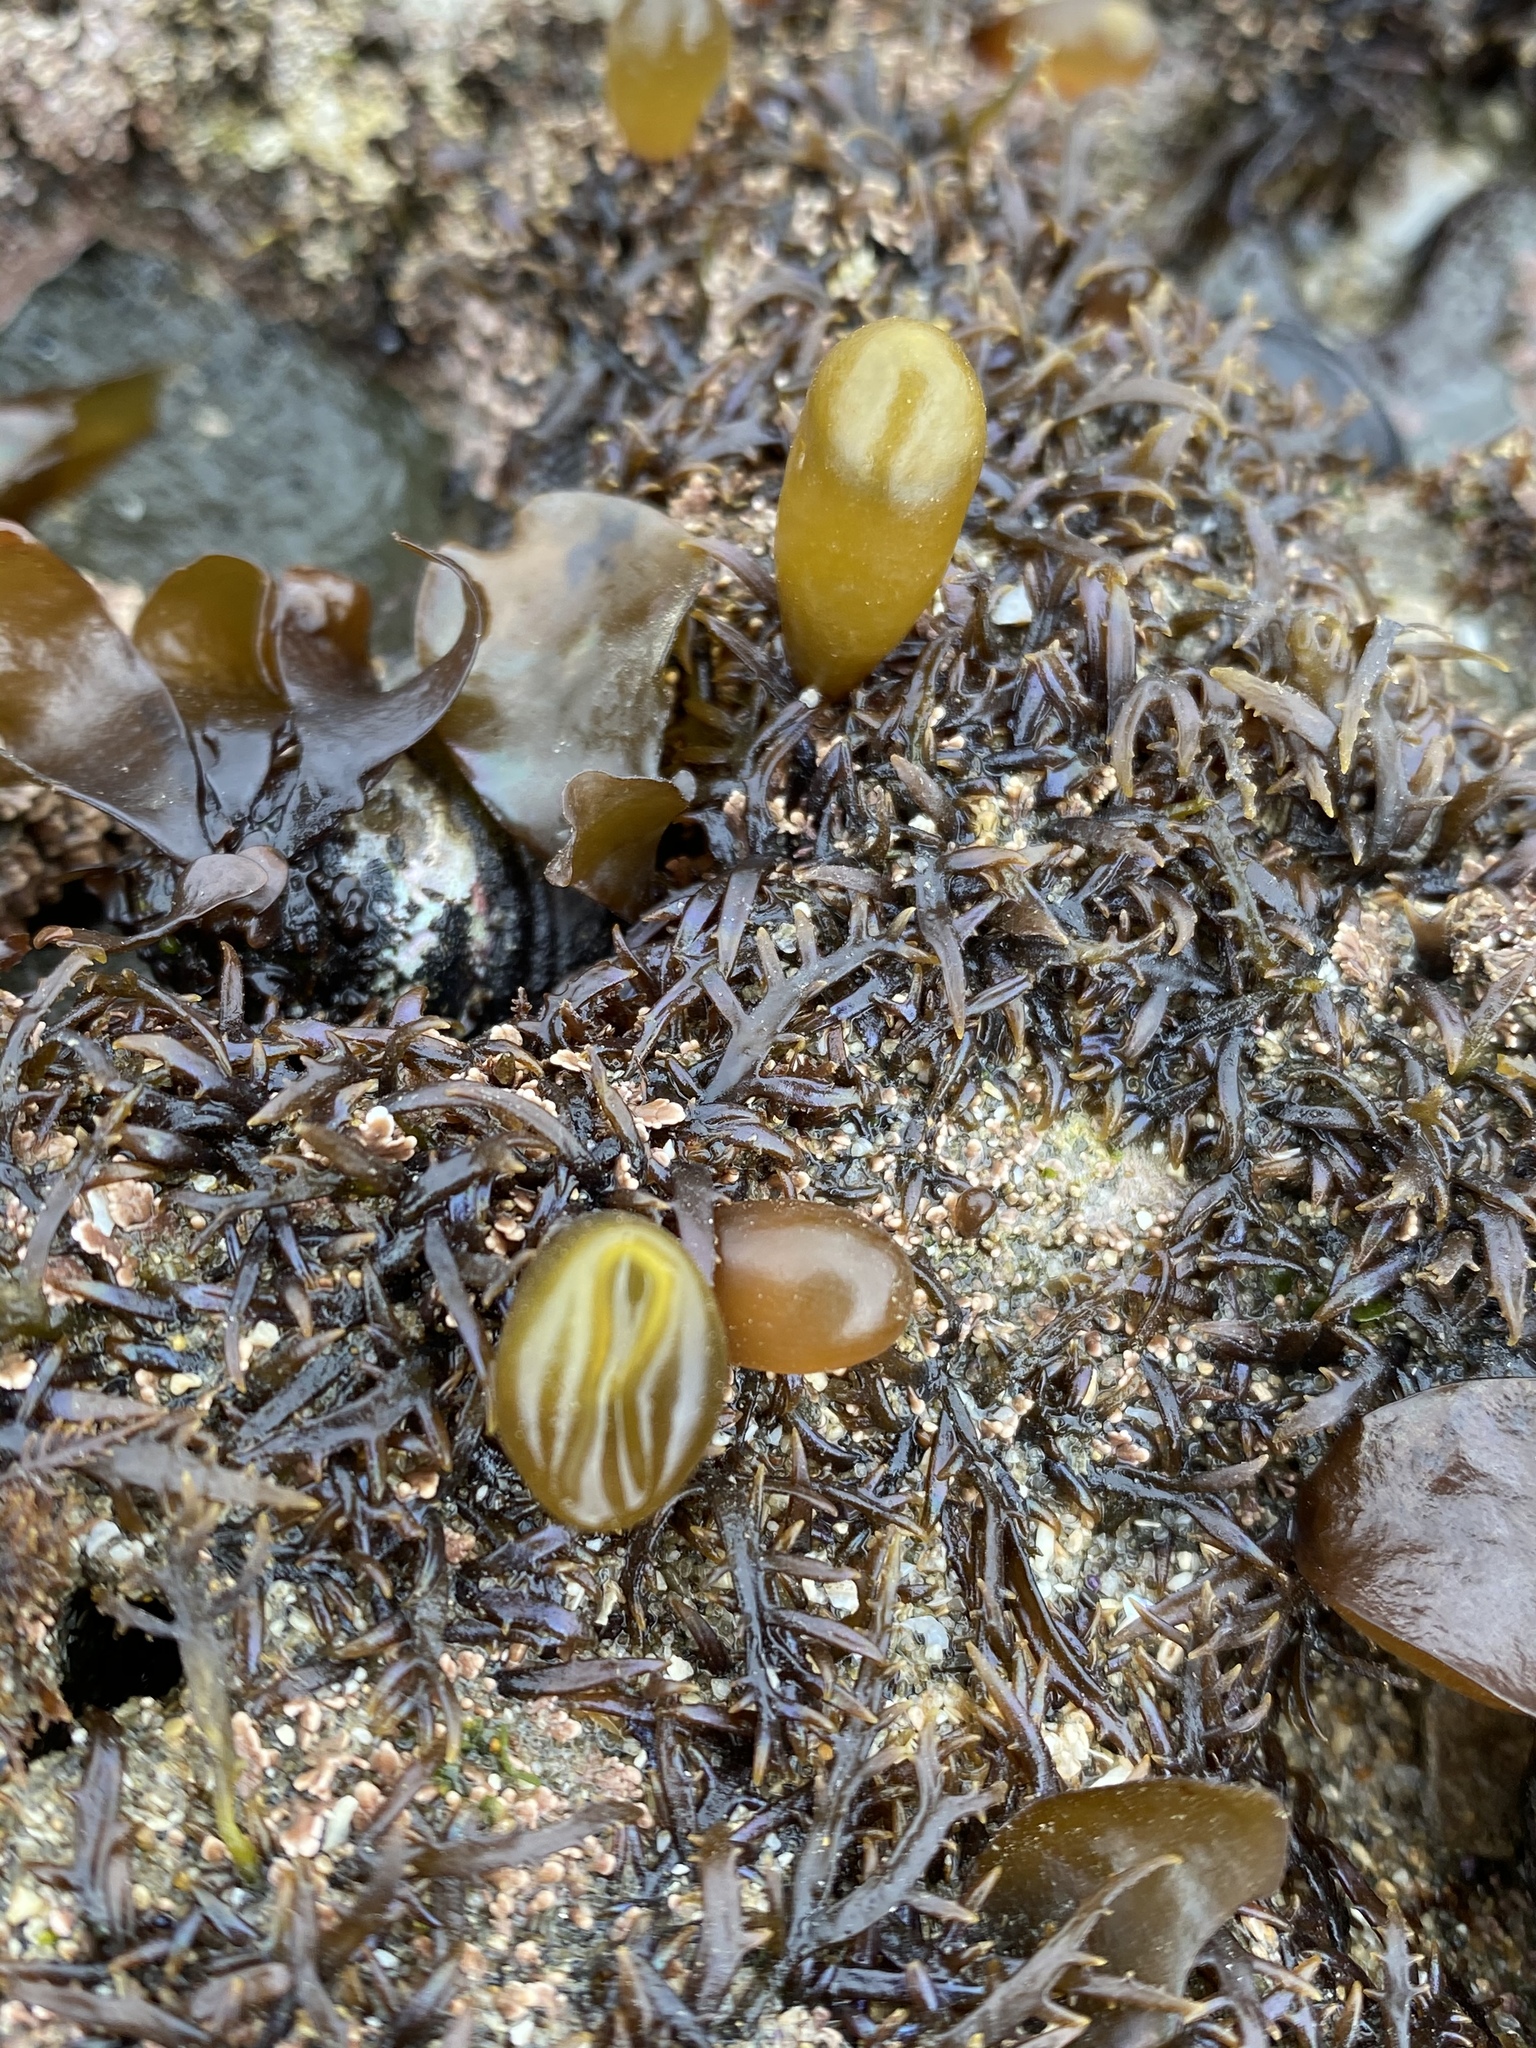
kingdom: Plantae
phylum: Rhodophyta
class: Florideophyceae
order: Palmariales
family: Palmariaceae
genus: Halosaccion
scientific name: Halosaccion glandiforme
